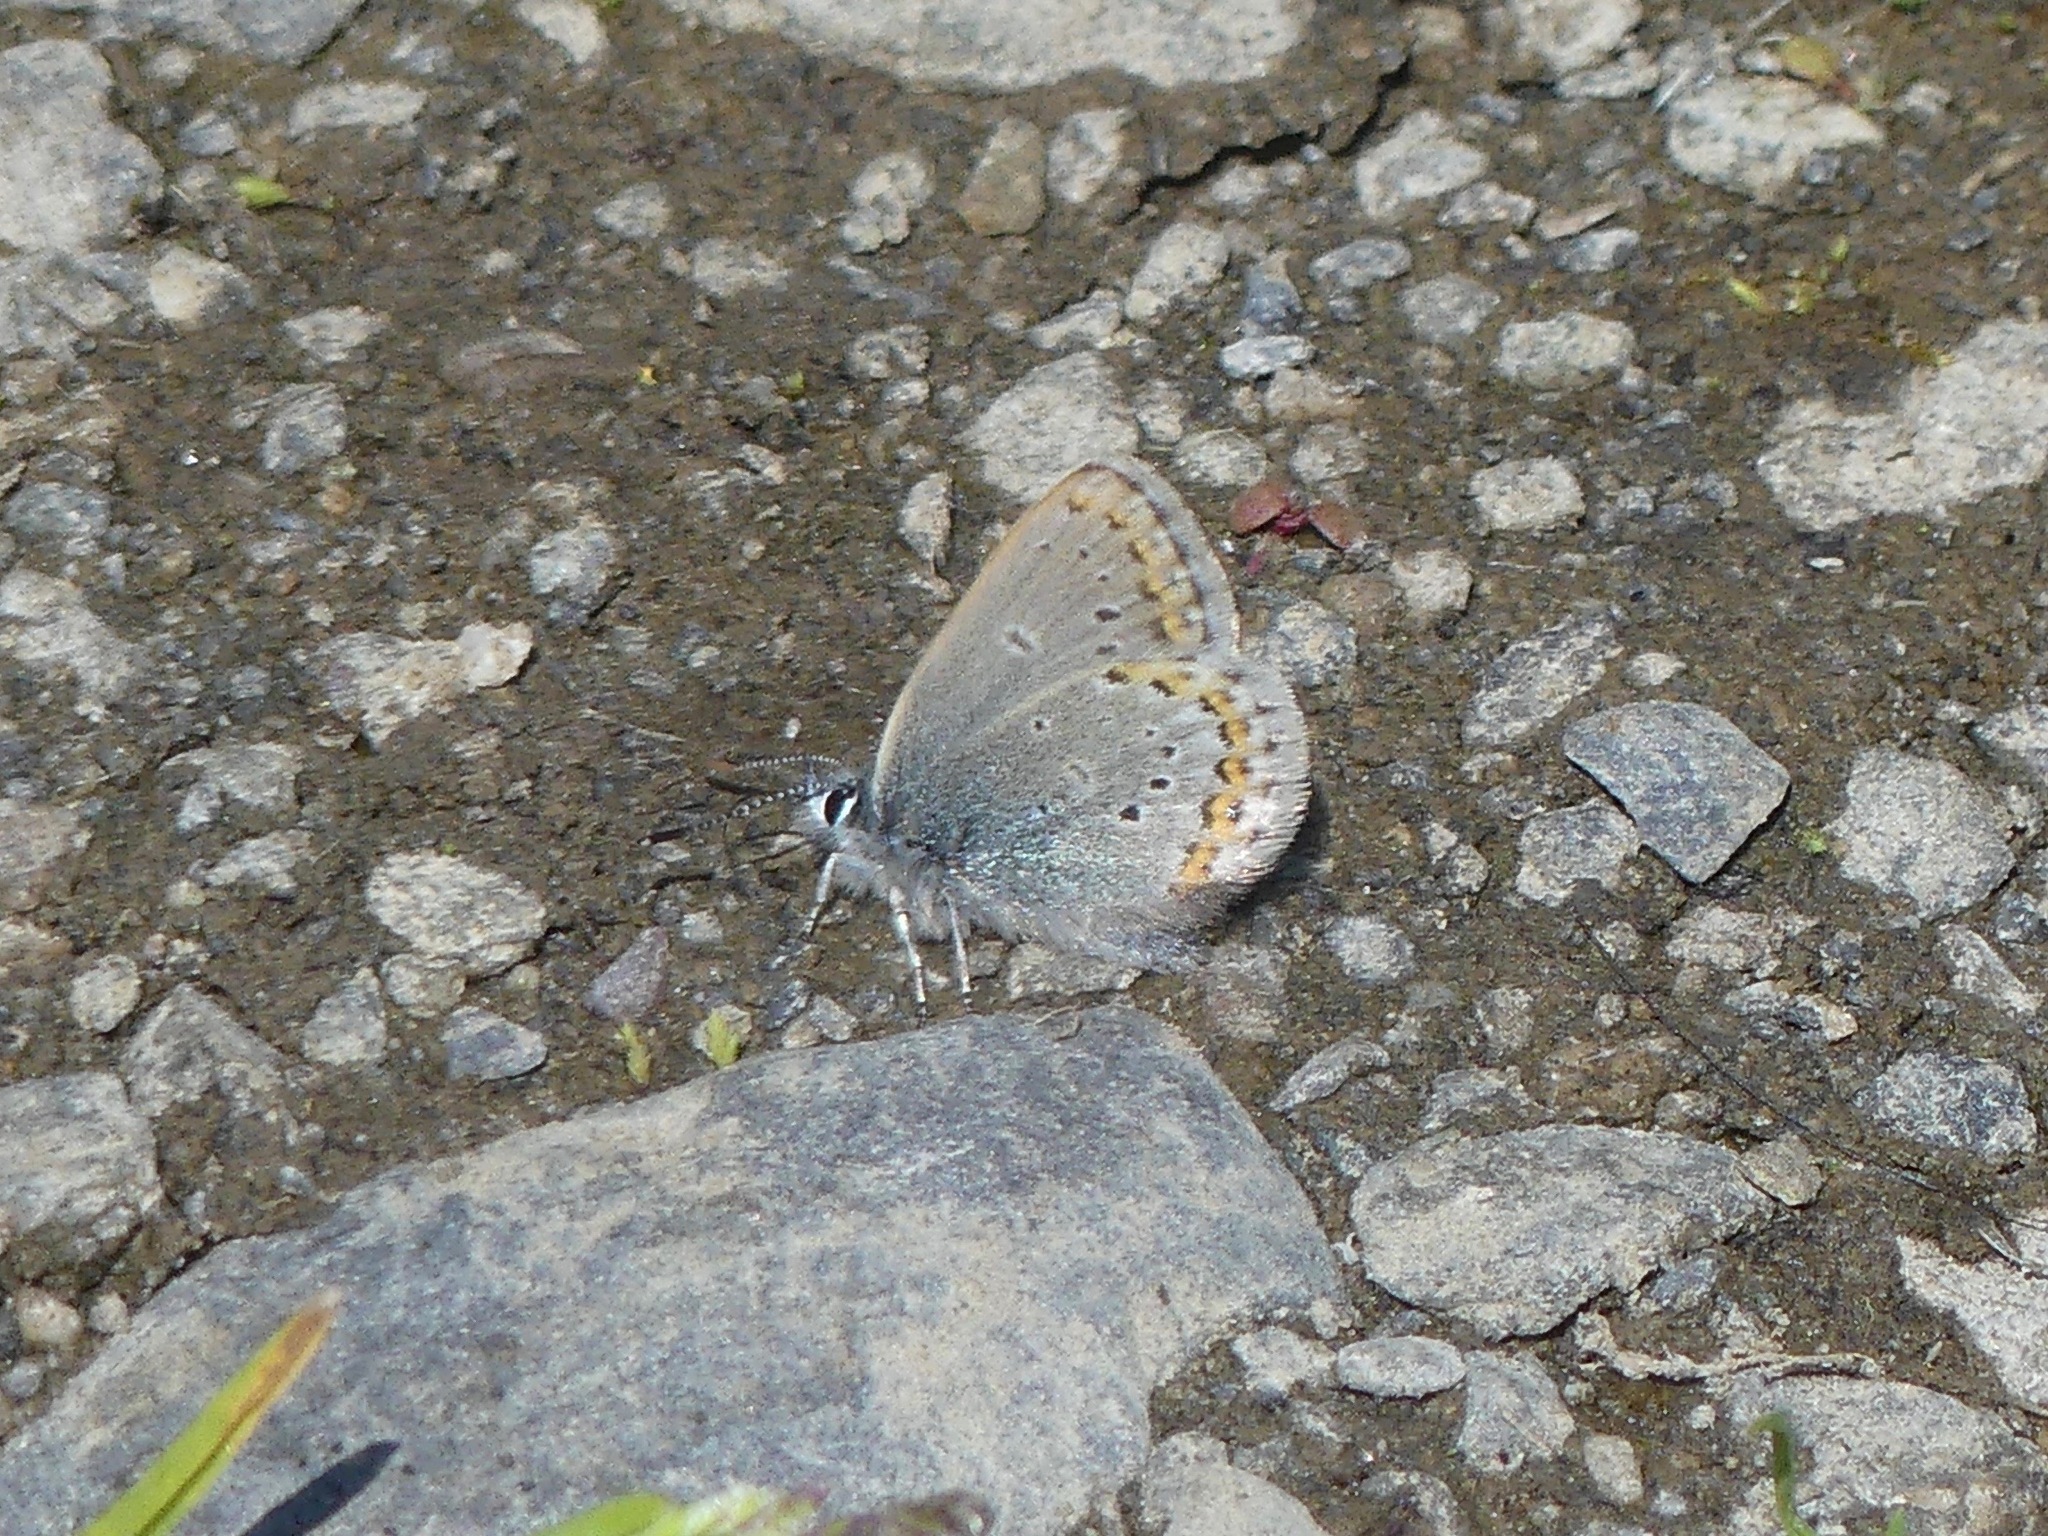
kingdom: Animalia
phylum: Arthropoda
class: Insecta
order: Lepidoptera
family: Lycaenidae
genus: Lycaeides
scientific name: Lycaeides idas
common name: Northern blue
